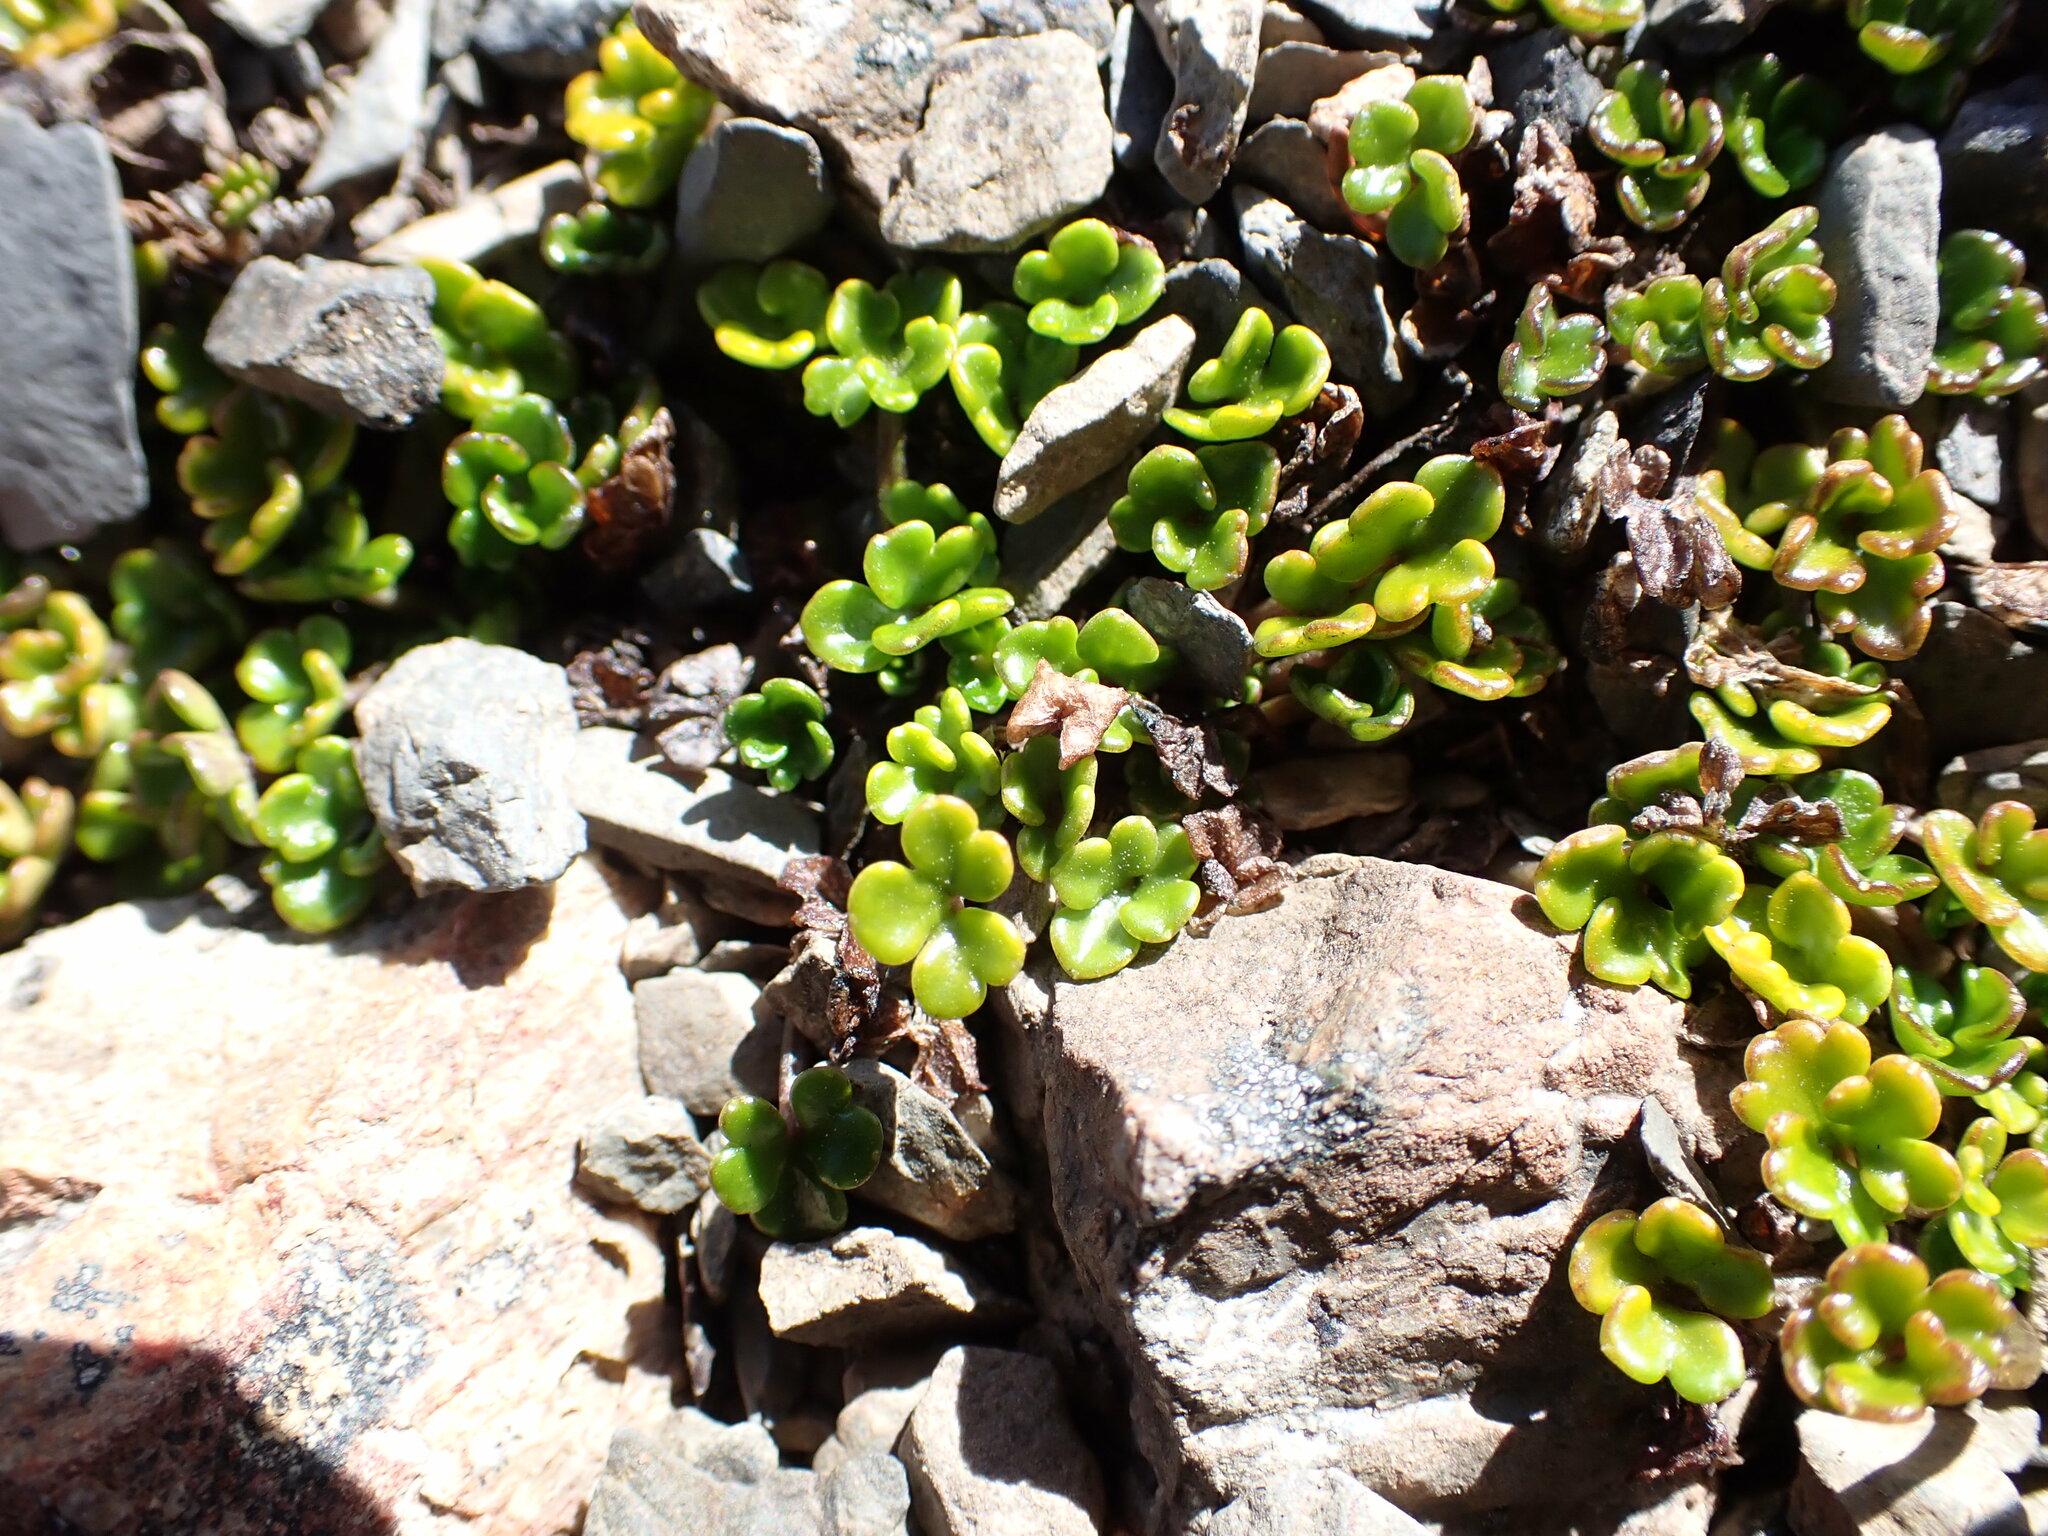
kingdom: Plantae
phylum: Tracheophyta
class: Magnoliopsida
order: Apiales
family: Apiaceae
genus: Azorella
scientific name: Azorella hydrocotyloides
